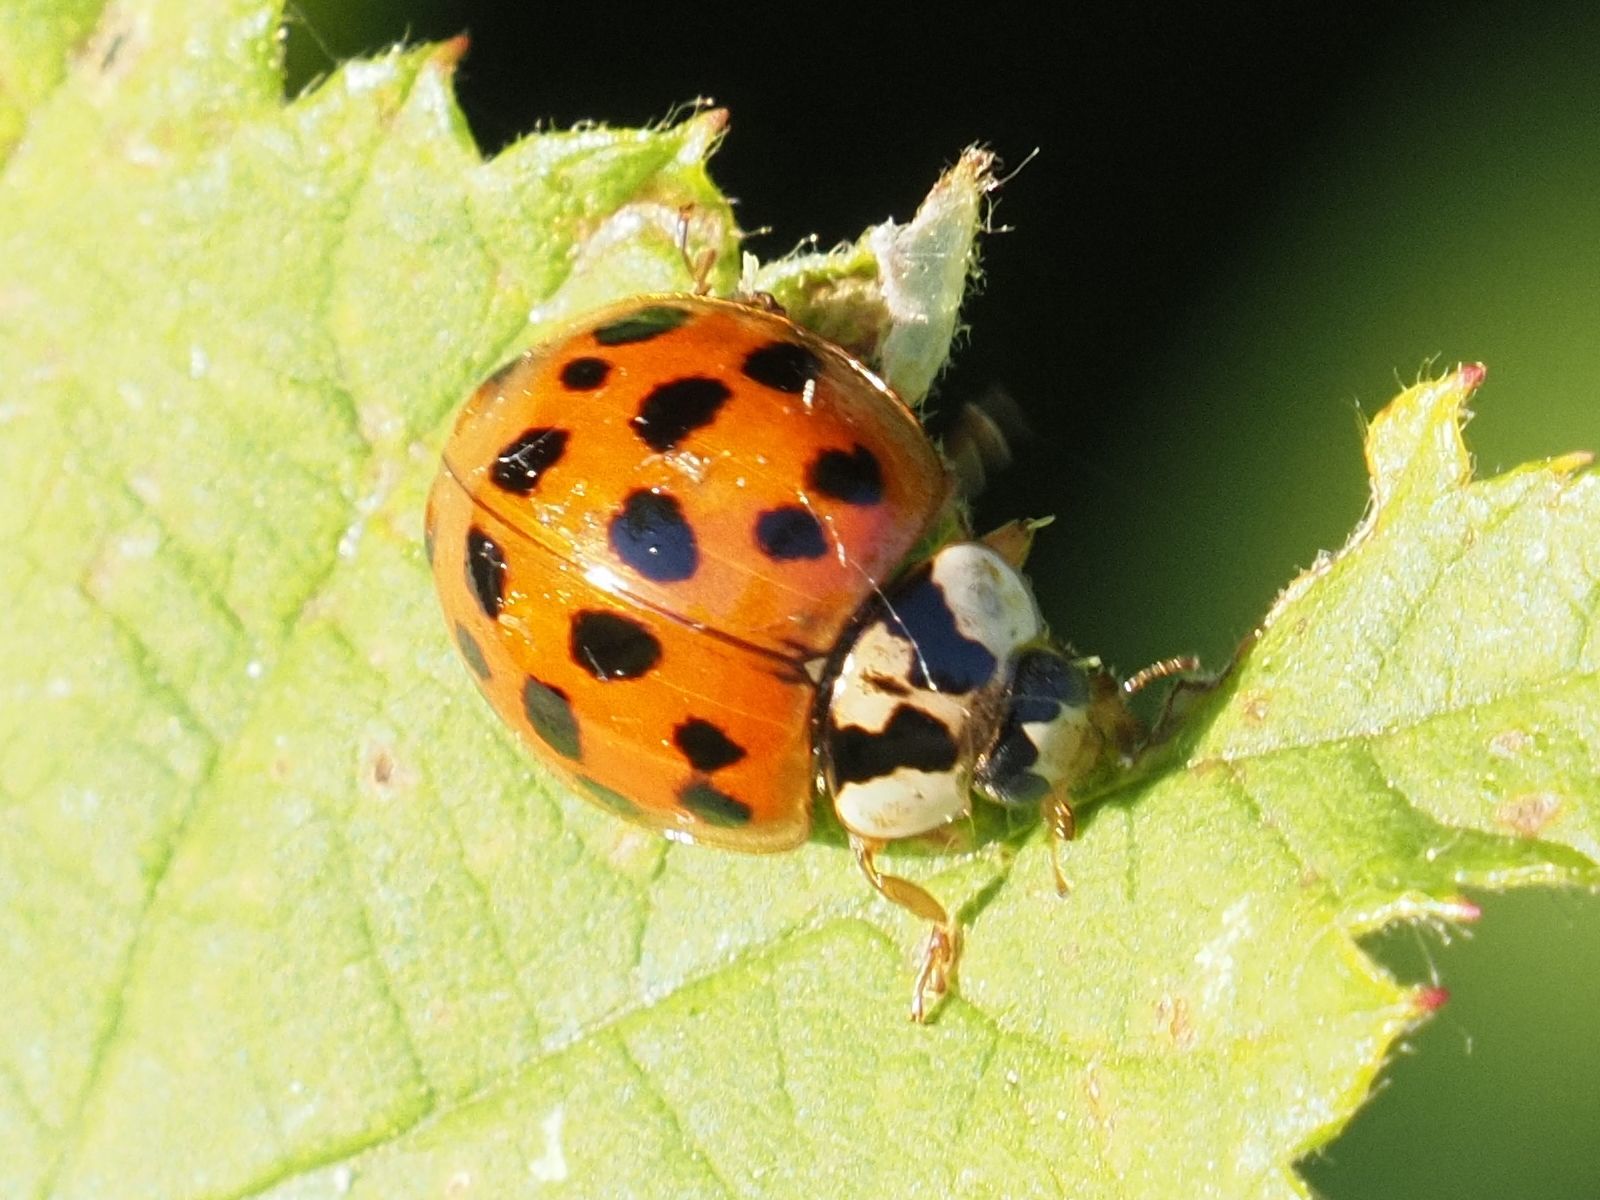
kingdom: Animalia
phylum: Arthropoda
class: Insecta
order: Coleoptera
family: Coccinellidae
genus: Harmonia
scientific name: Harmonia axyridis
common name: Harlequin ladybird
